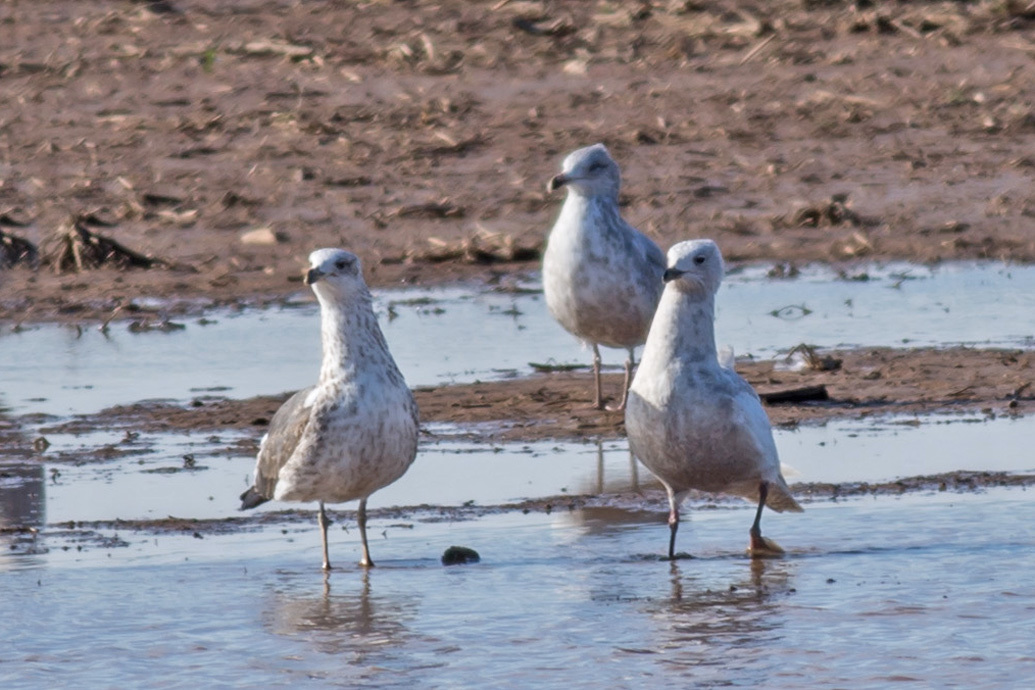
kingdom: Animalia
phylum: Chordata
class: Aves
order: Charadriiformes
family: Laridae
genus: Larus
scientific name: Larus glaucoides
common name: Iceland gull
